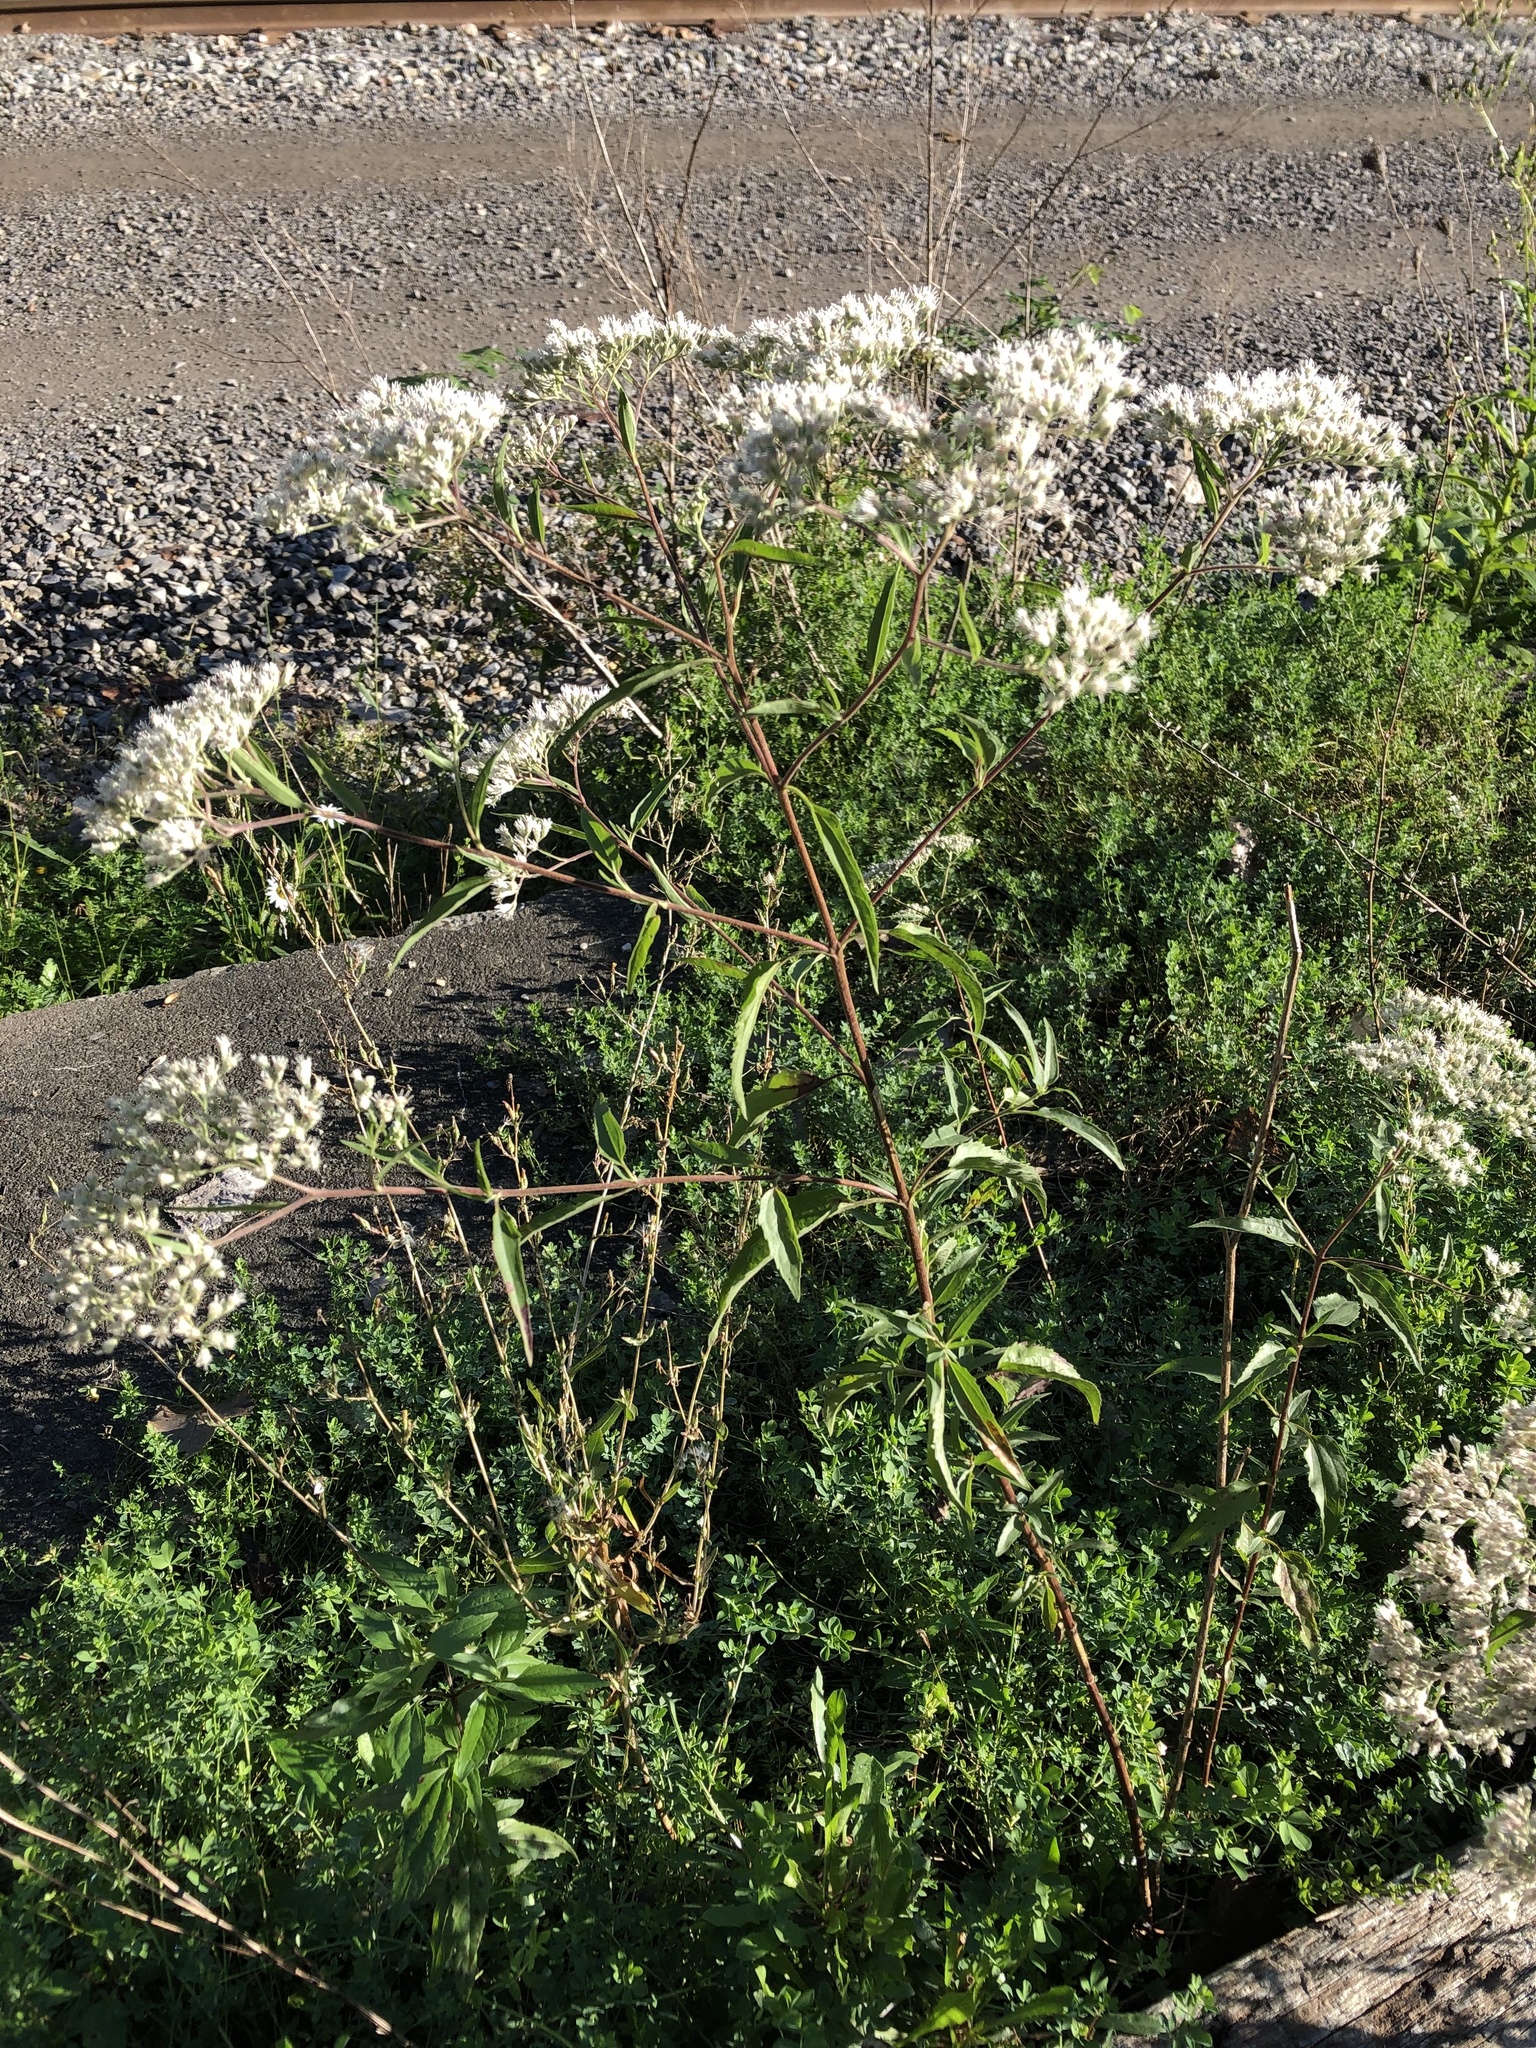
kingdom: Plantae
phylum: Tracheophyta
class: Magnoliopsida
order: Asterales
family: Asteraceae
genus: Eupatorium
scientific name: Eupatorium serotinum
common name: Late boneset
